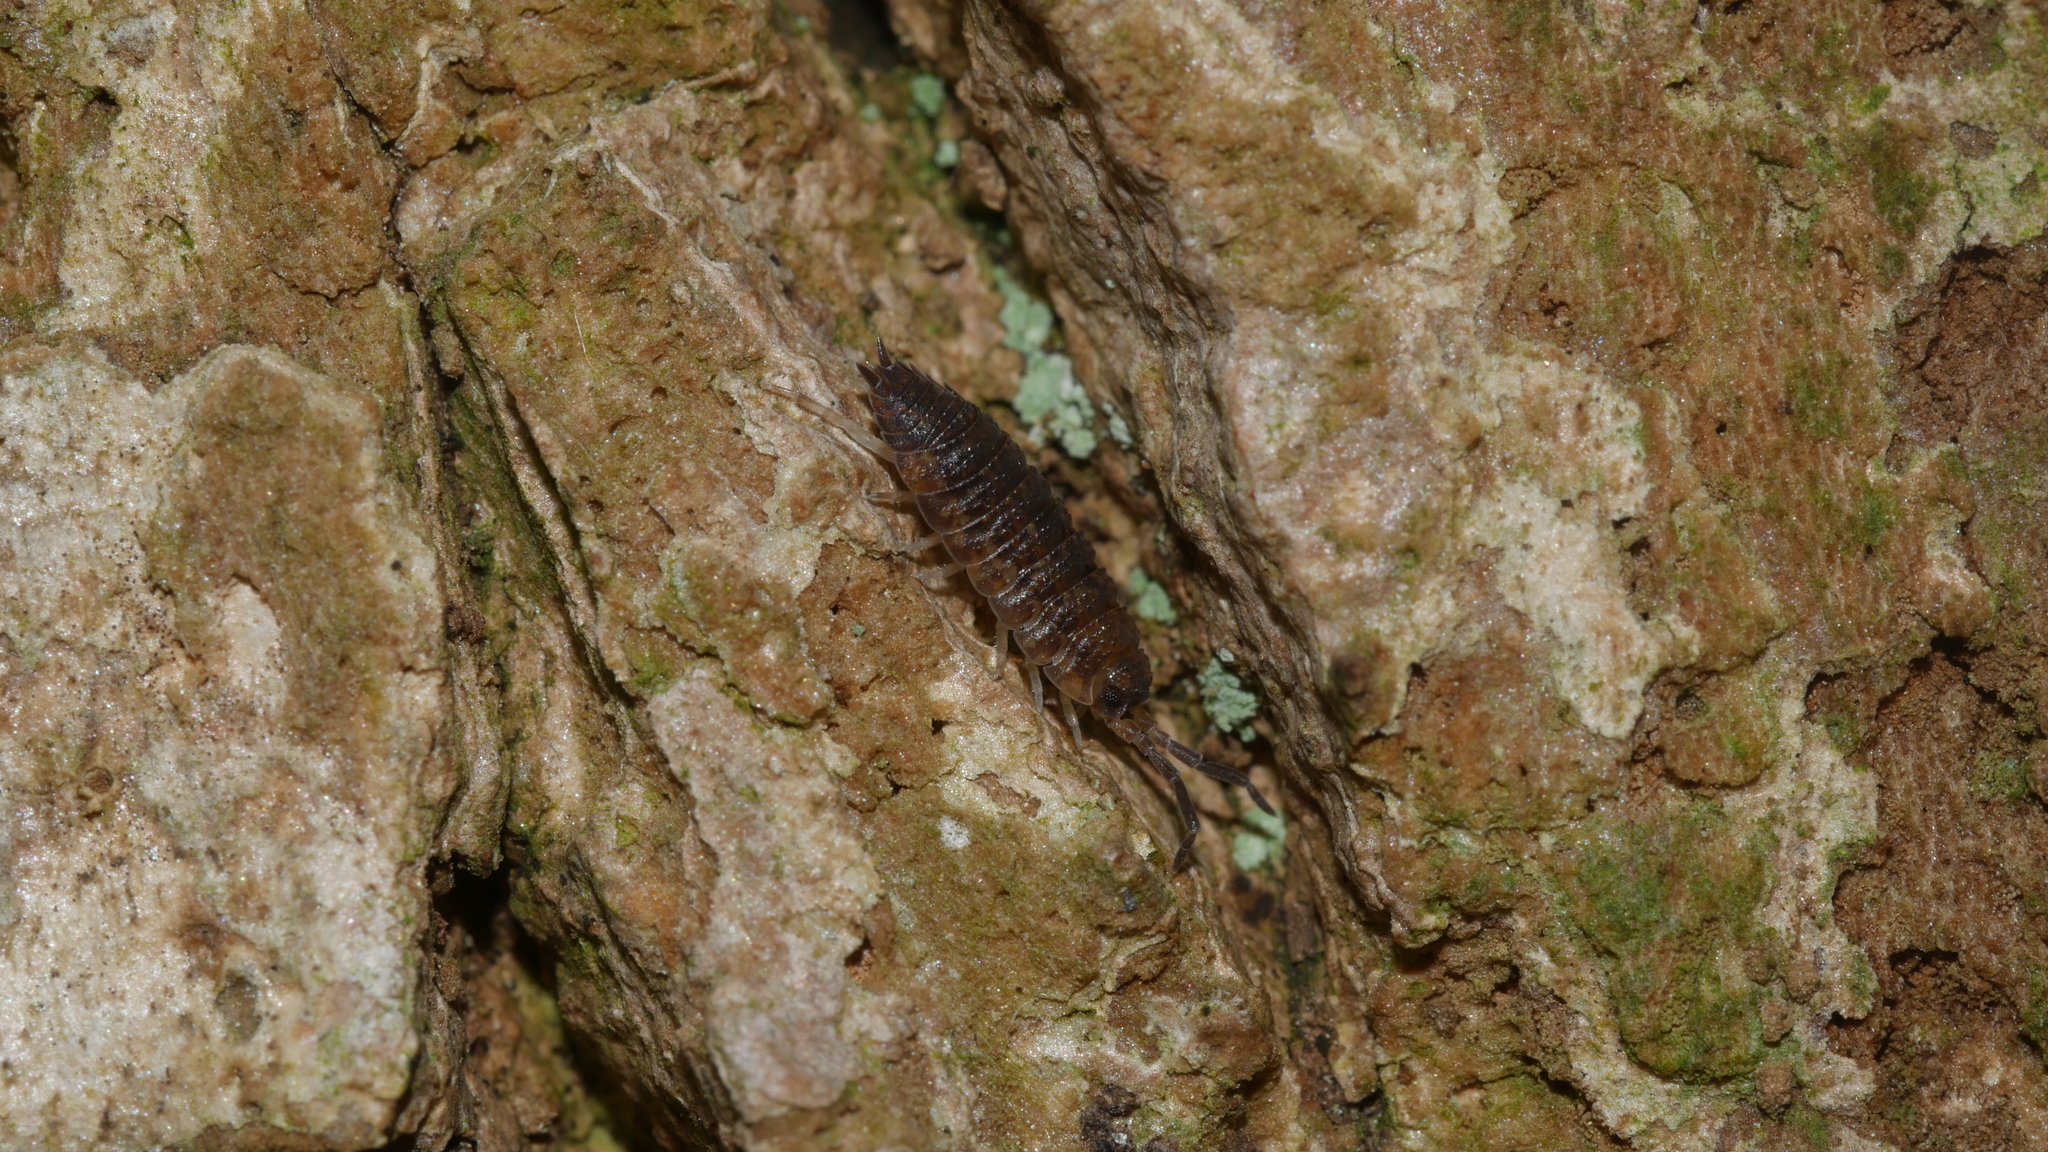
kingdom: Animalia
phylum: Arthropoda
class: Malacostraca
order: Isopoda
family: Porcellionidae
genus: Porcellio
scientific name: Porcellio scaber
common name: Common rough woodlouse
